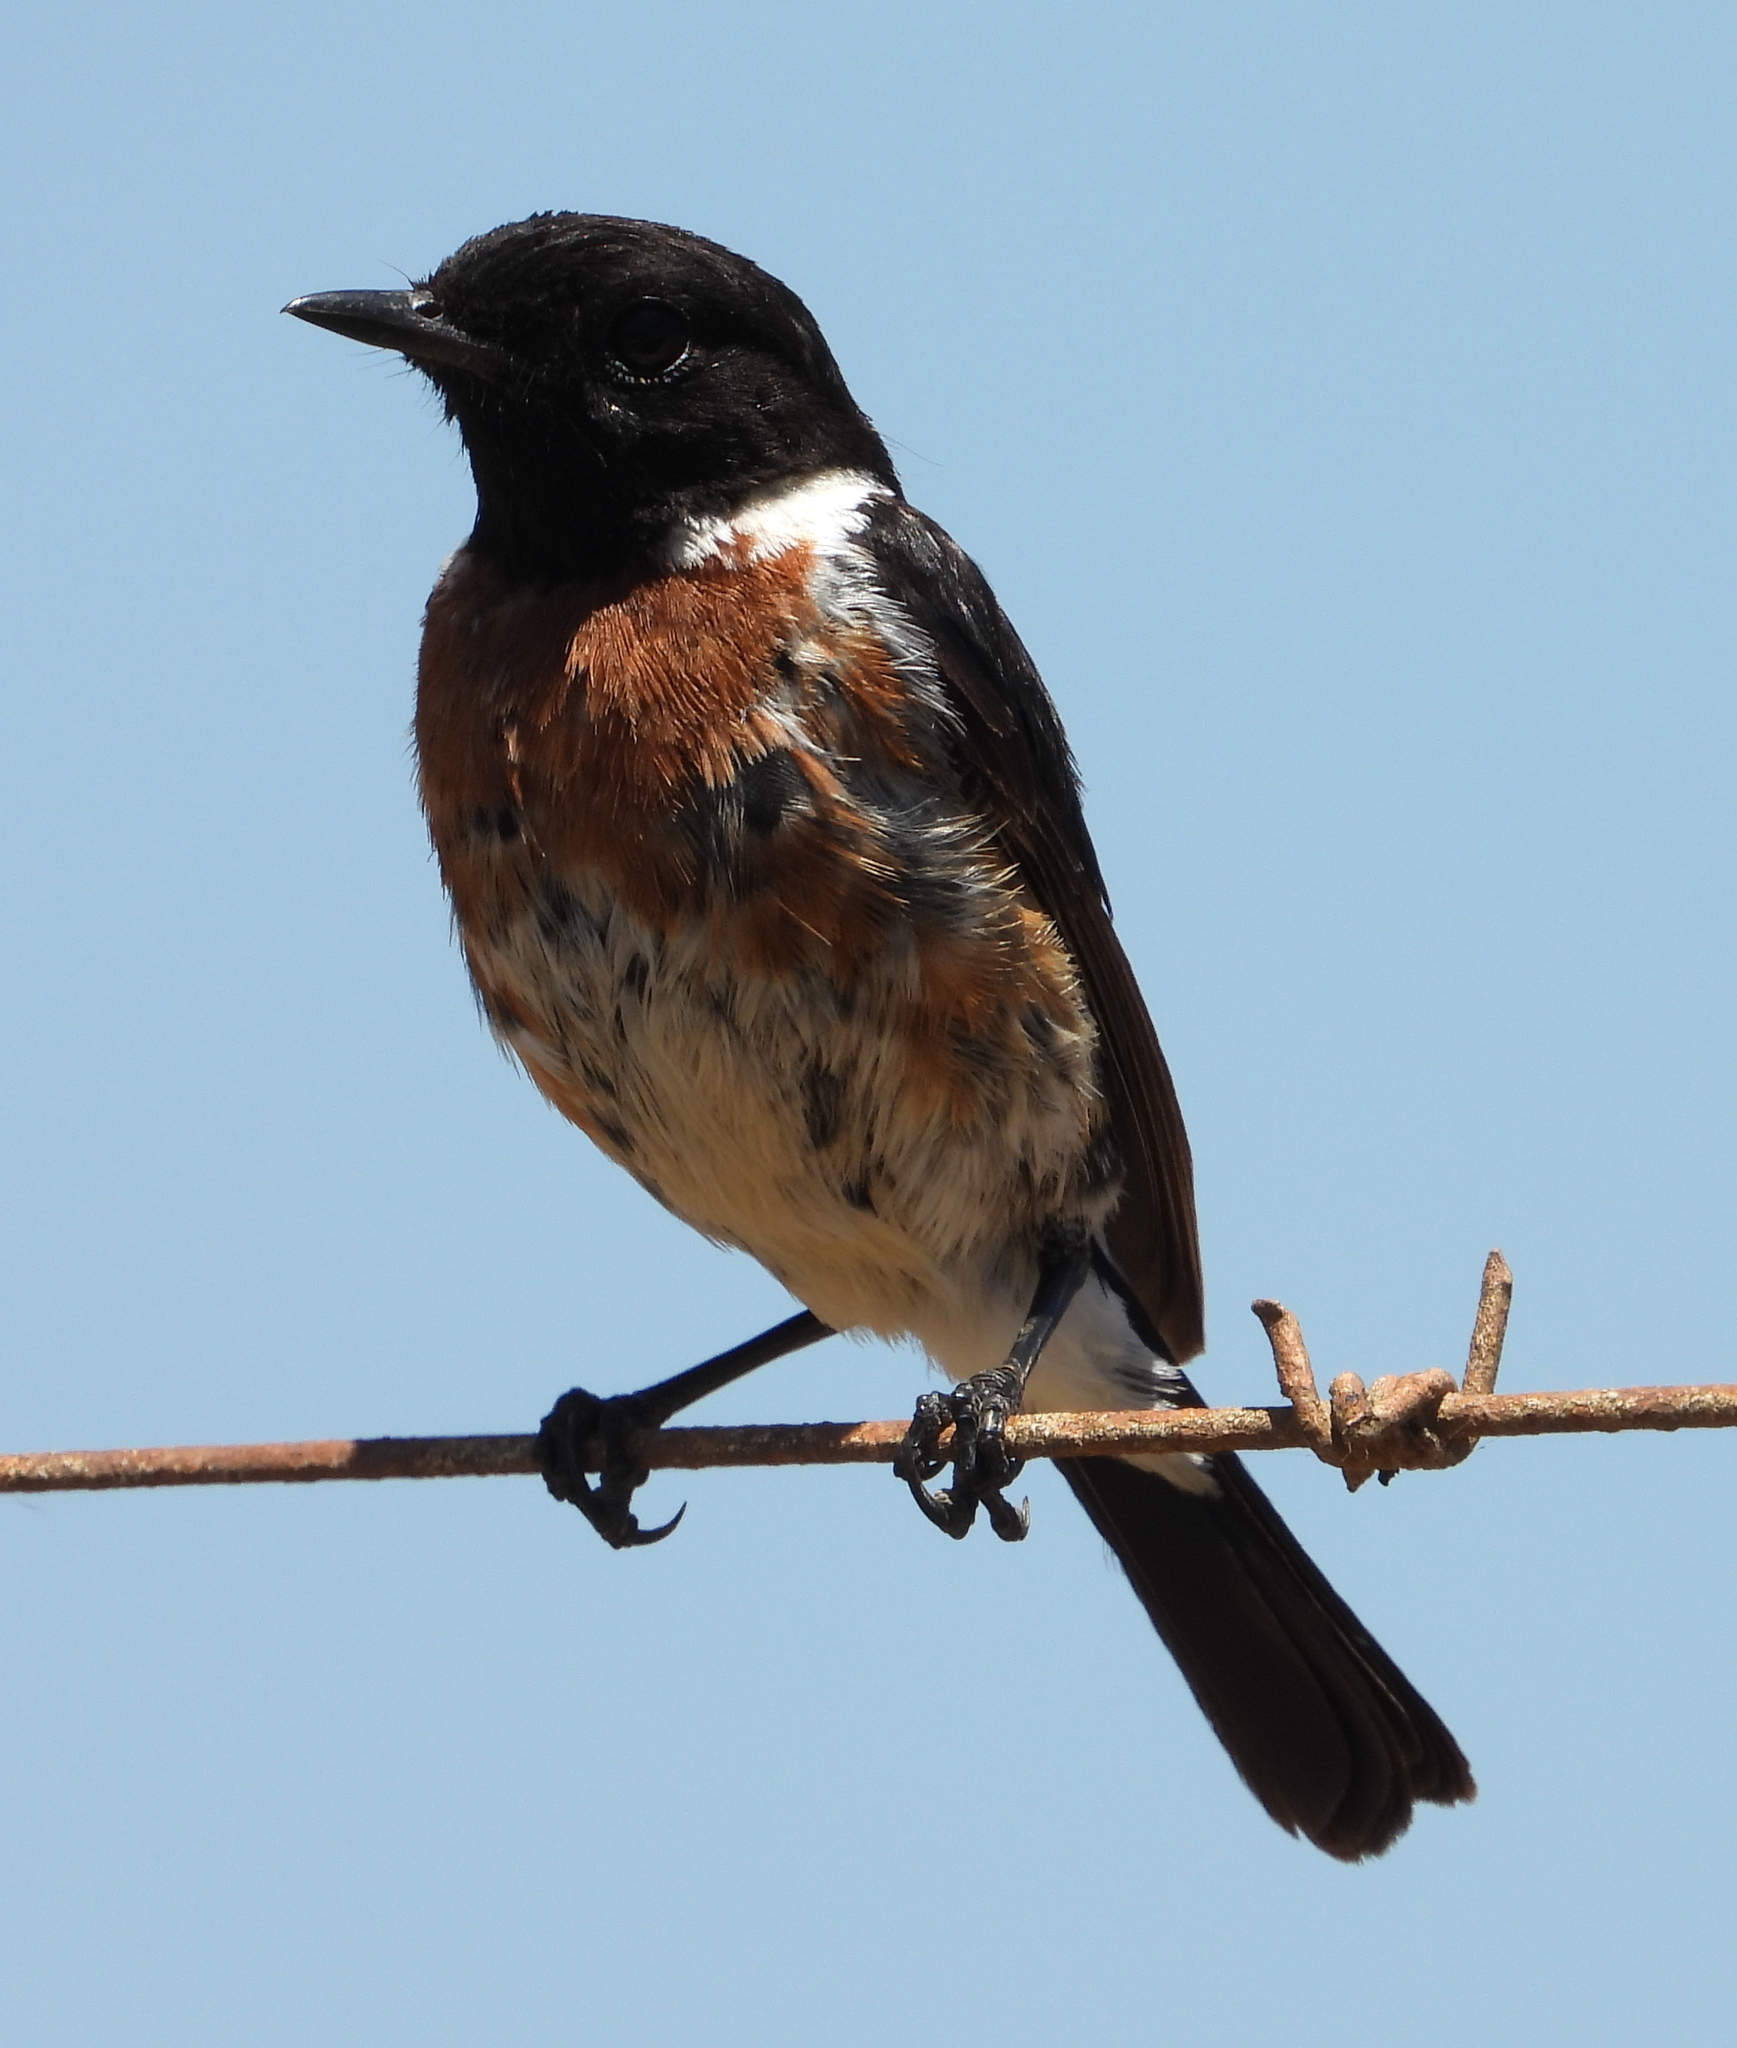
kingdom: Animalia
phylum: Chordata
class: Aves
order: Passeriformes
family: Muscicapidae
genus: Saxicola
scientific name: Saxicola torquatus
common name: African stonechat
